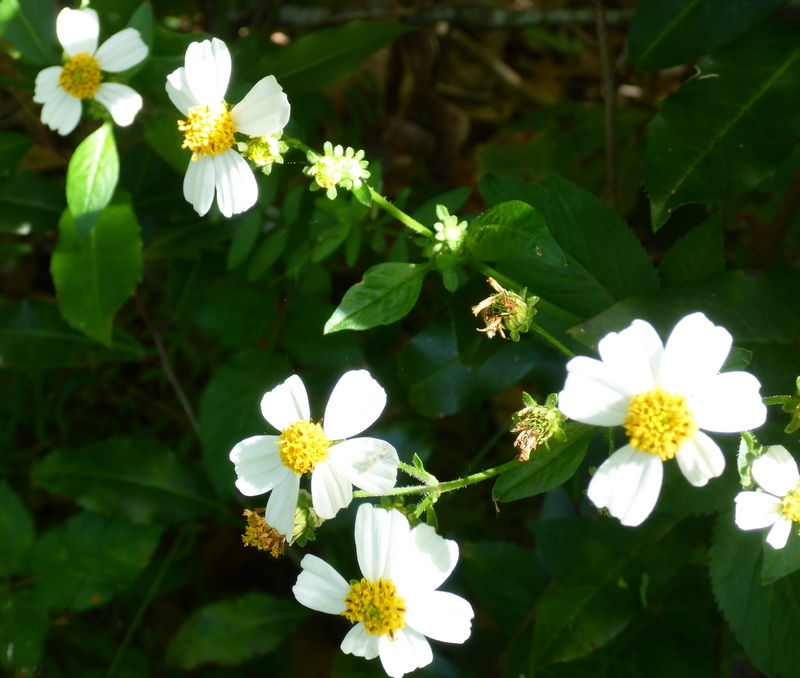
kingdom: Plantae
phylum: Tracheophyta
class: Magnoliopsida
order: Asterales
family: Asteraceae
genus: Bidens
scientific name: Bidens alba
